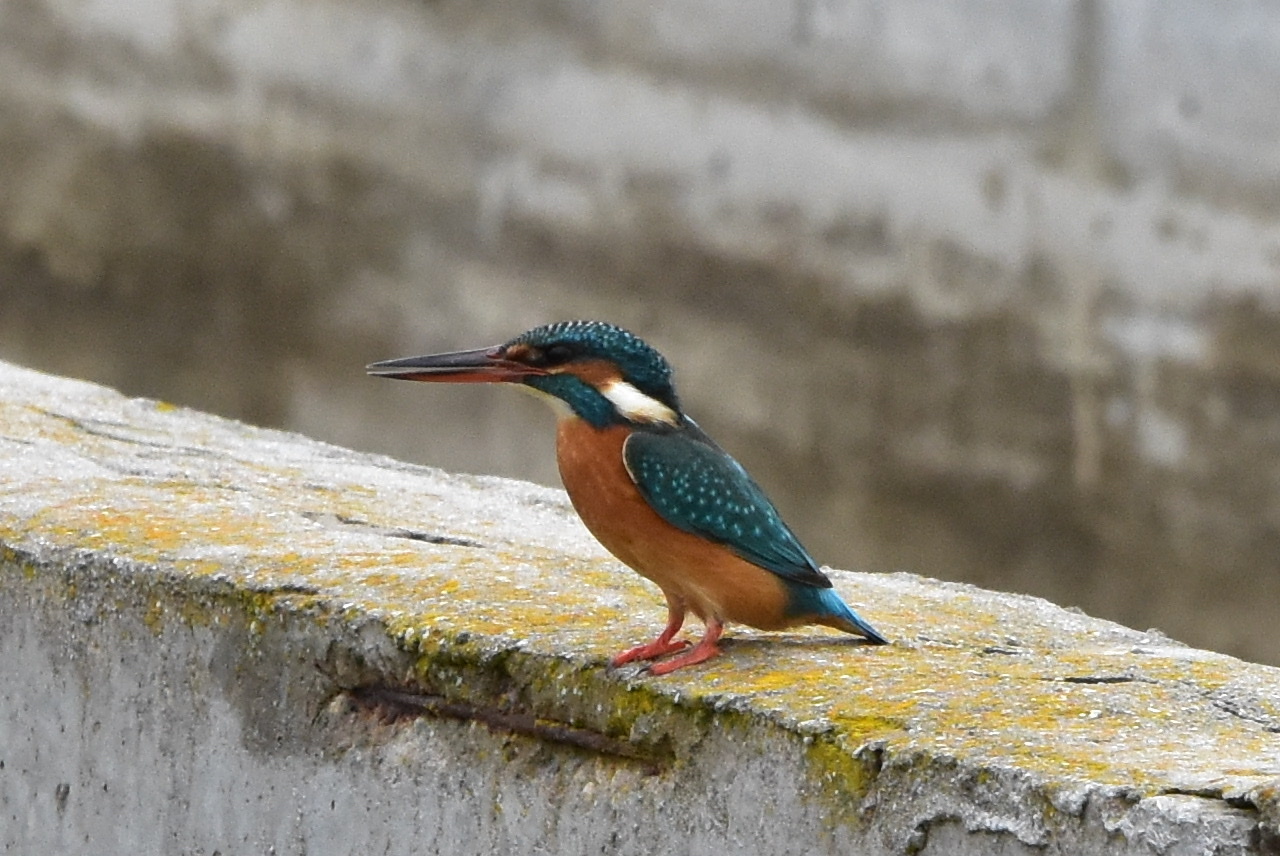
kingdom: Animalia
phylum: Chordata
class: Aves
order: Coraciiformes
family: Alcedinidae
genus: Alcedo
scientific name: Alcedo atthis
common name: Common kingfisher
